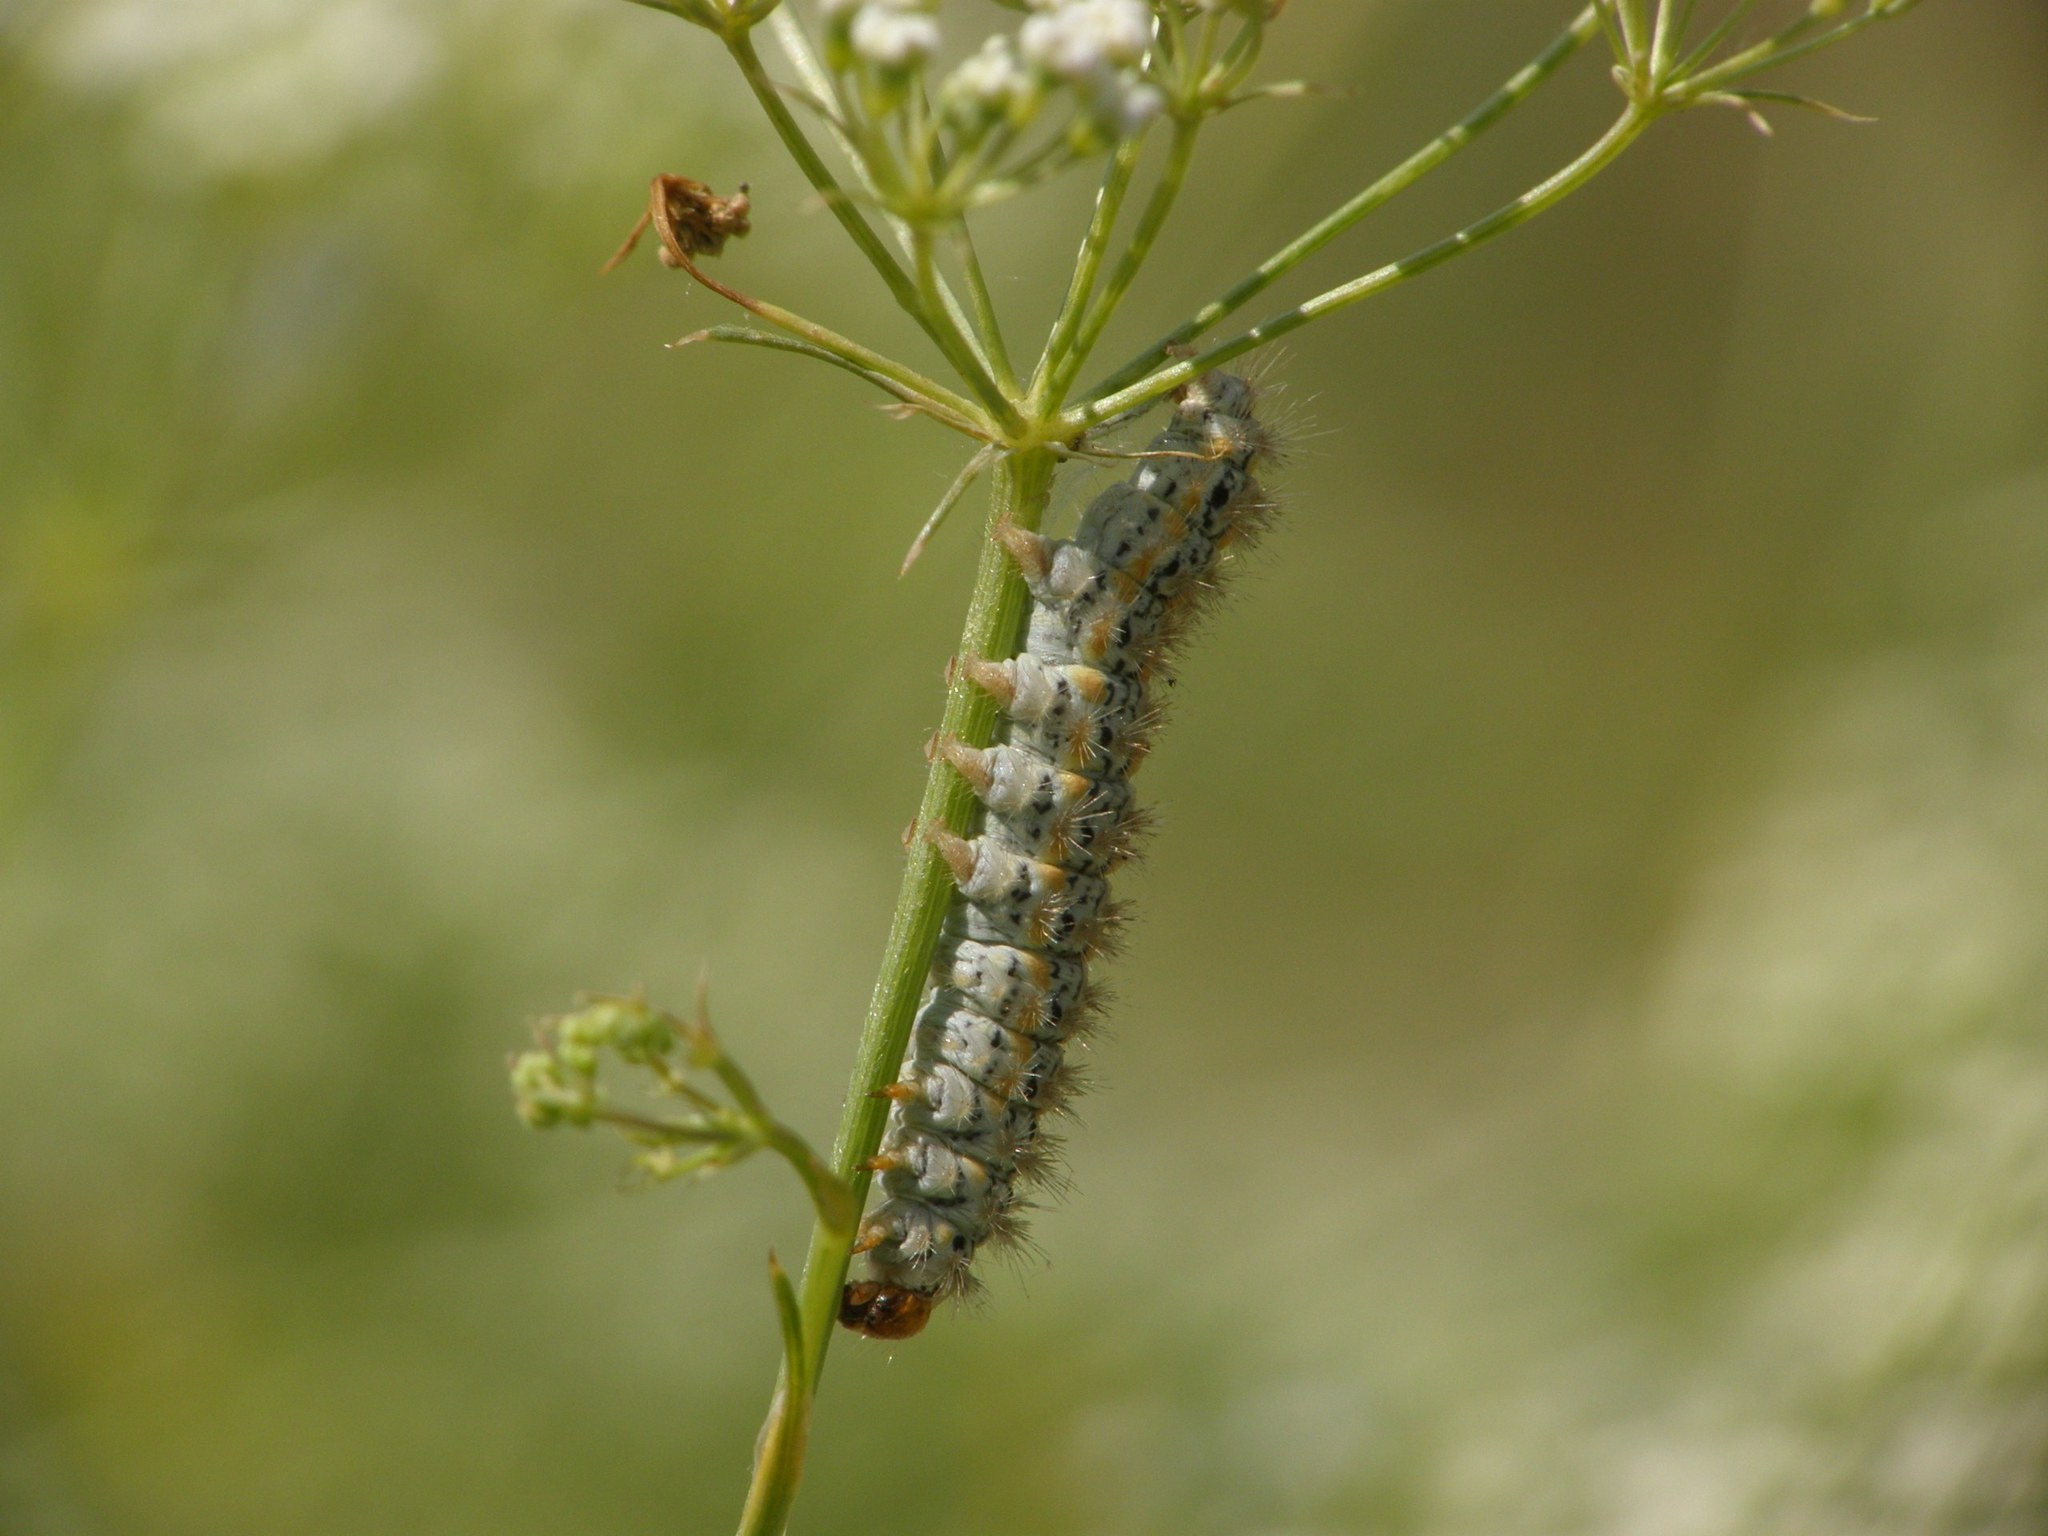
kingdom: Animalia
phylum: Arthropoda
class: Insecta
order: Lepidoptera
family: Erebidae
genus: Manulea
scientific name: Manulea palliatella
